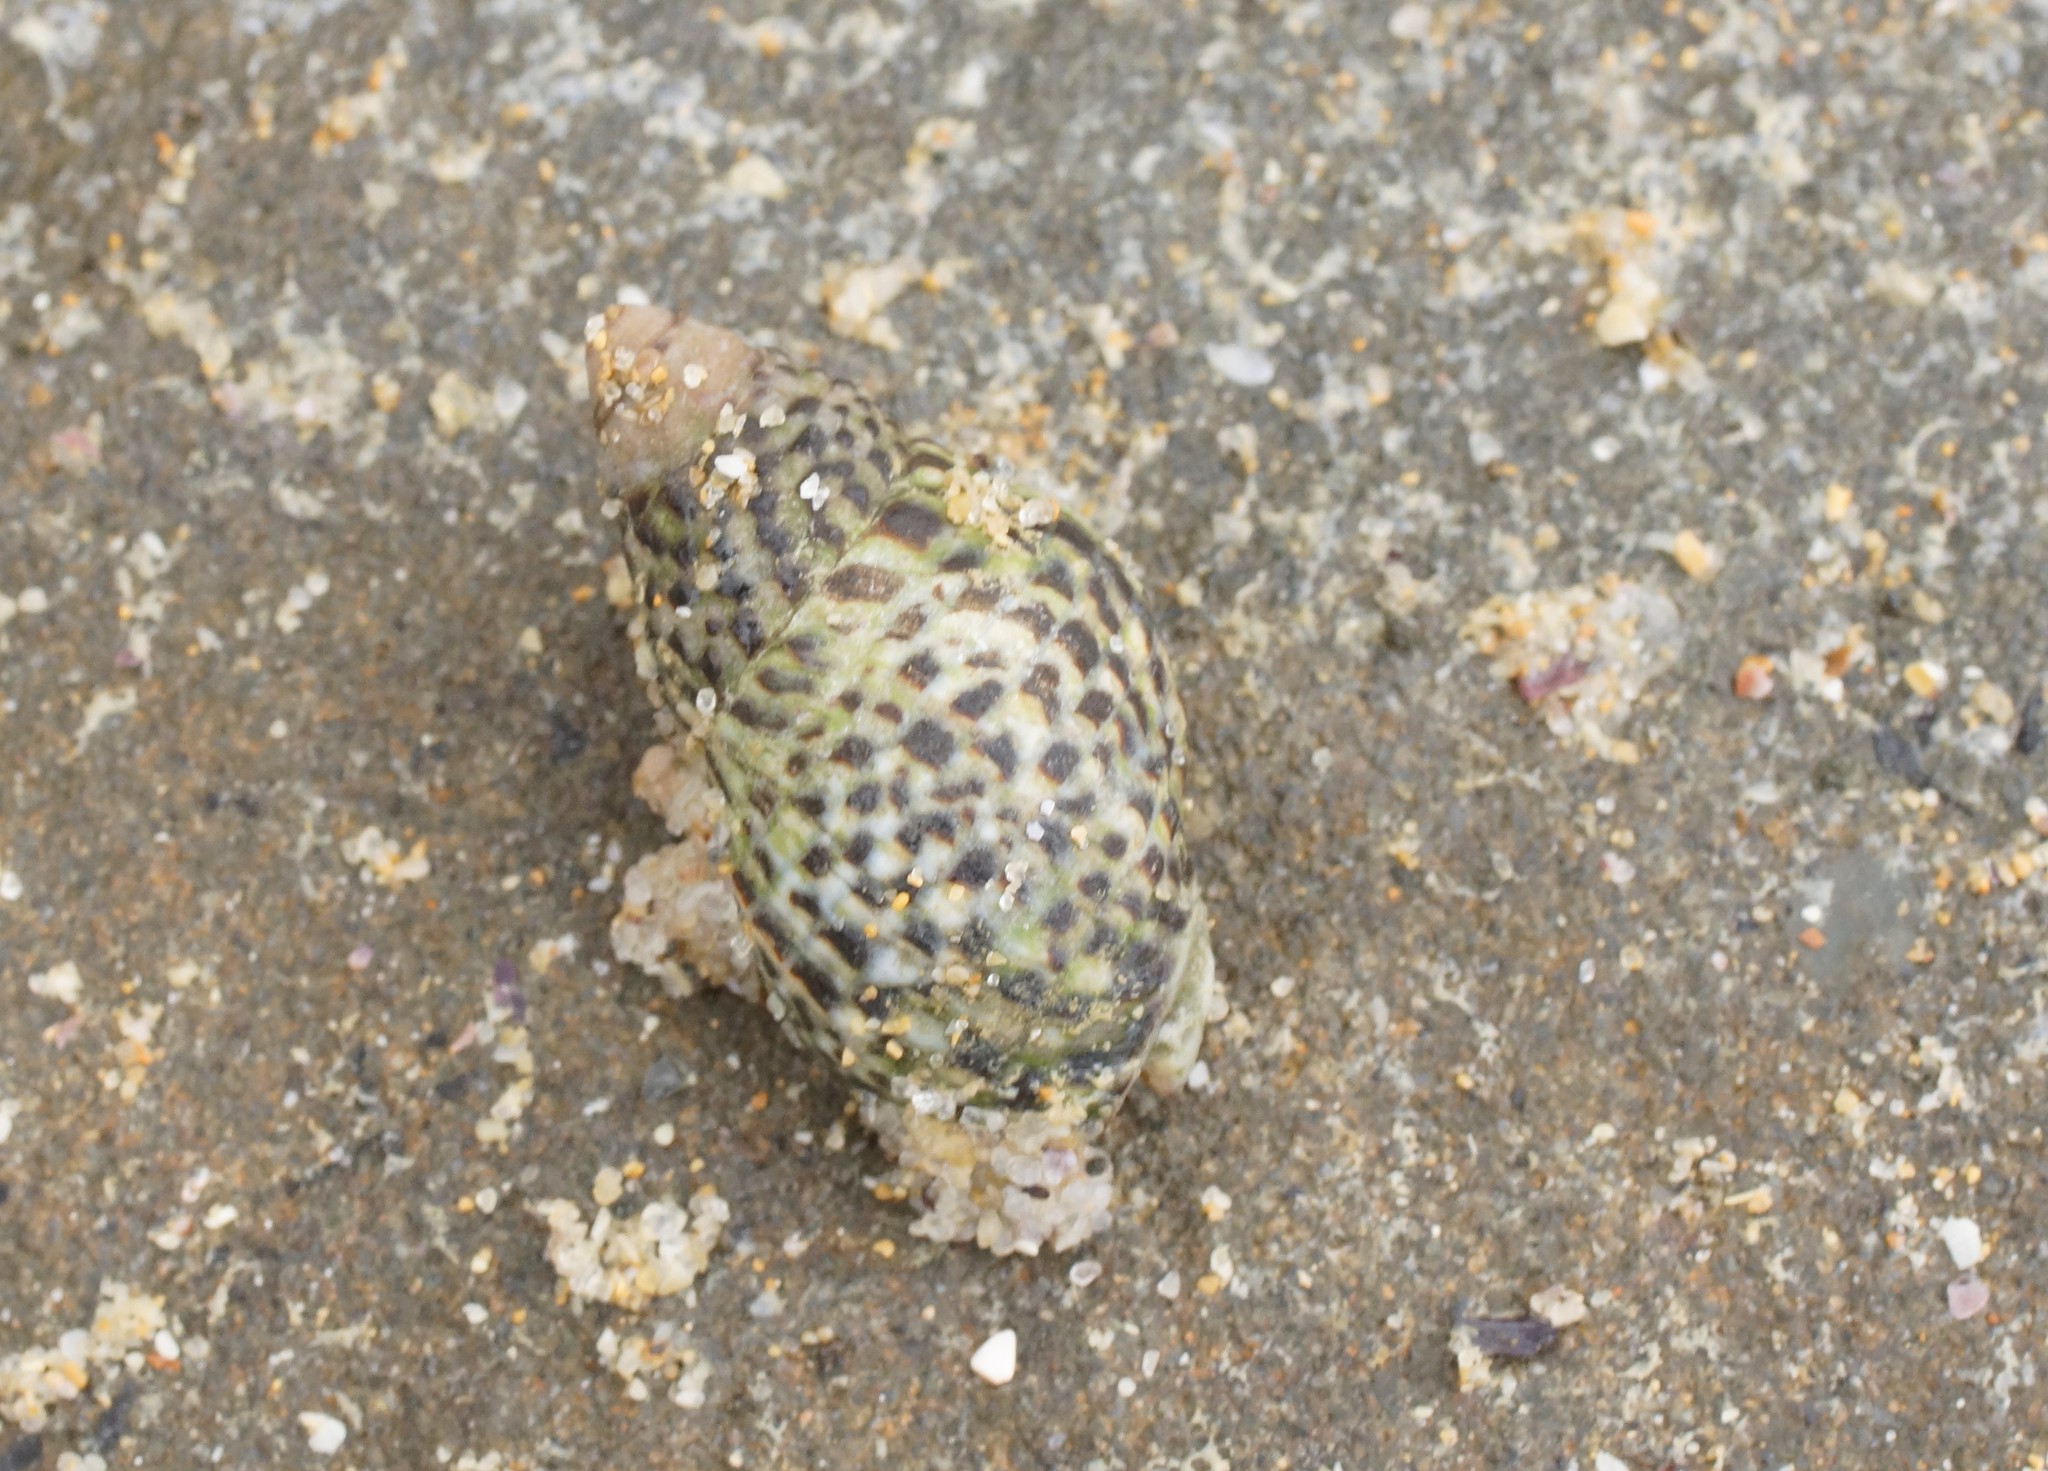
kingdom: Animalia
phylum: Mollusca
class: Gastropoda
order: Neogastropoda
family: Cominellidae
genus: Cominella
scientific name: Cominella lineolata
